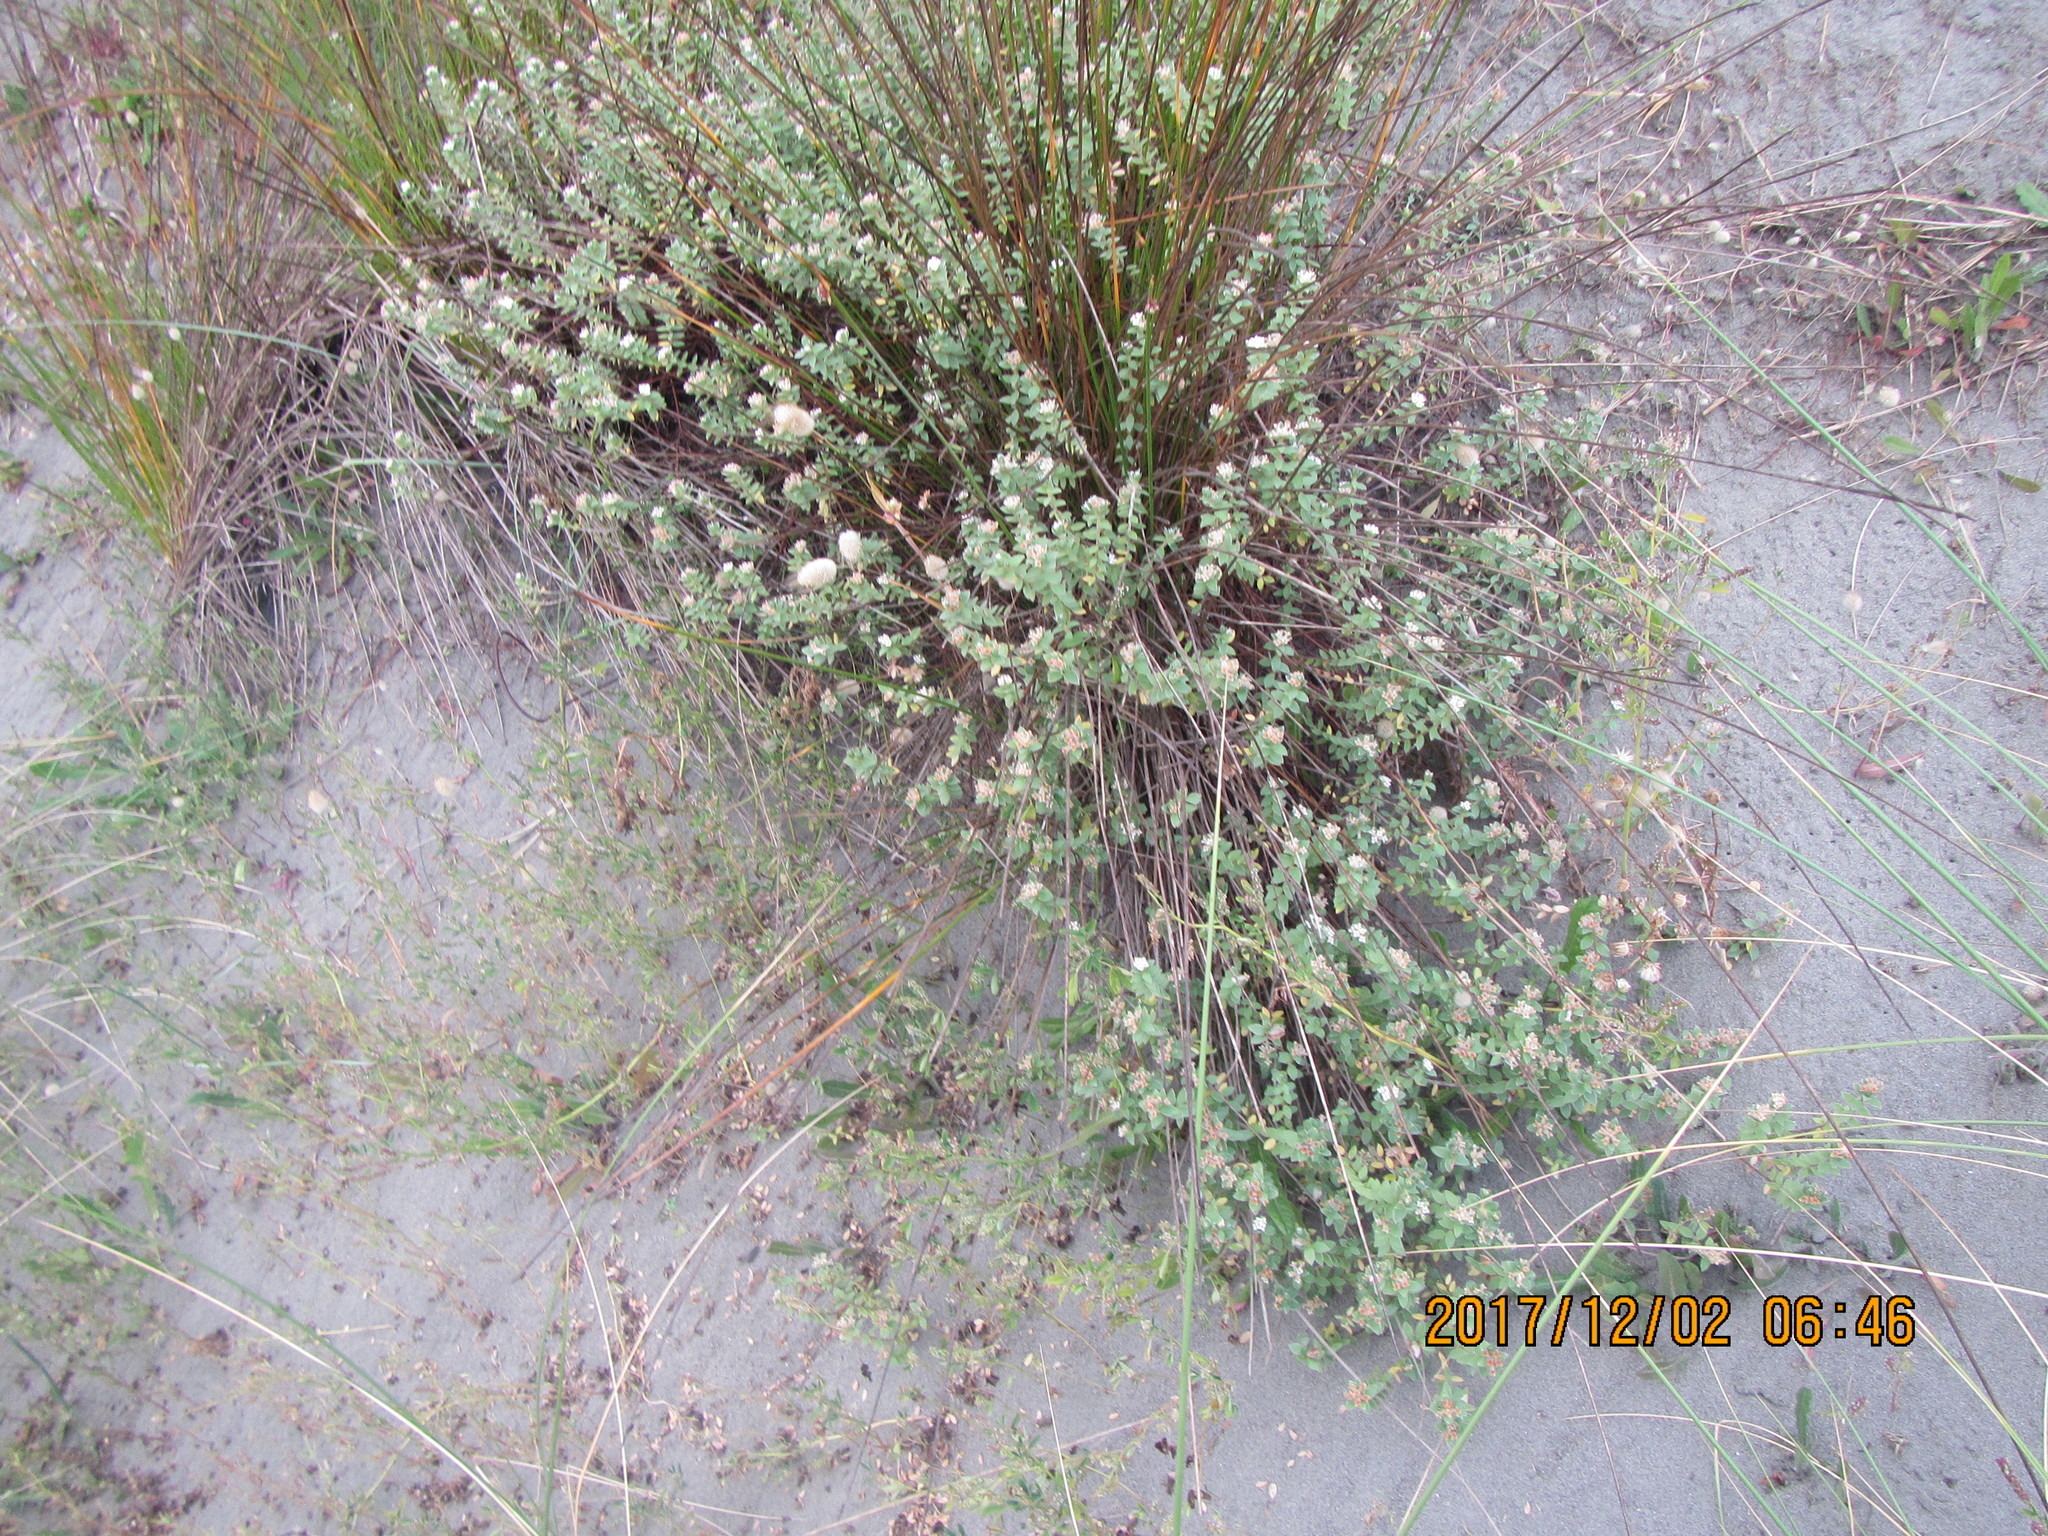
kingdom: Plantae
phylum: Tracheophyta
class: Magnoliopsida
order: Malvales
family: Thymelaeaceae
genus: Pimelea
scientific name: Pimelea villosa
